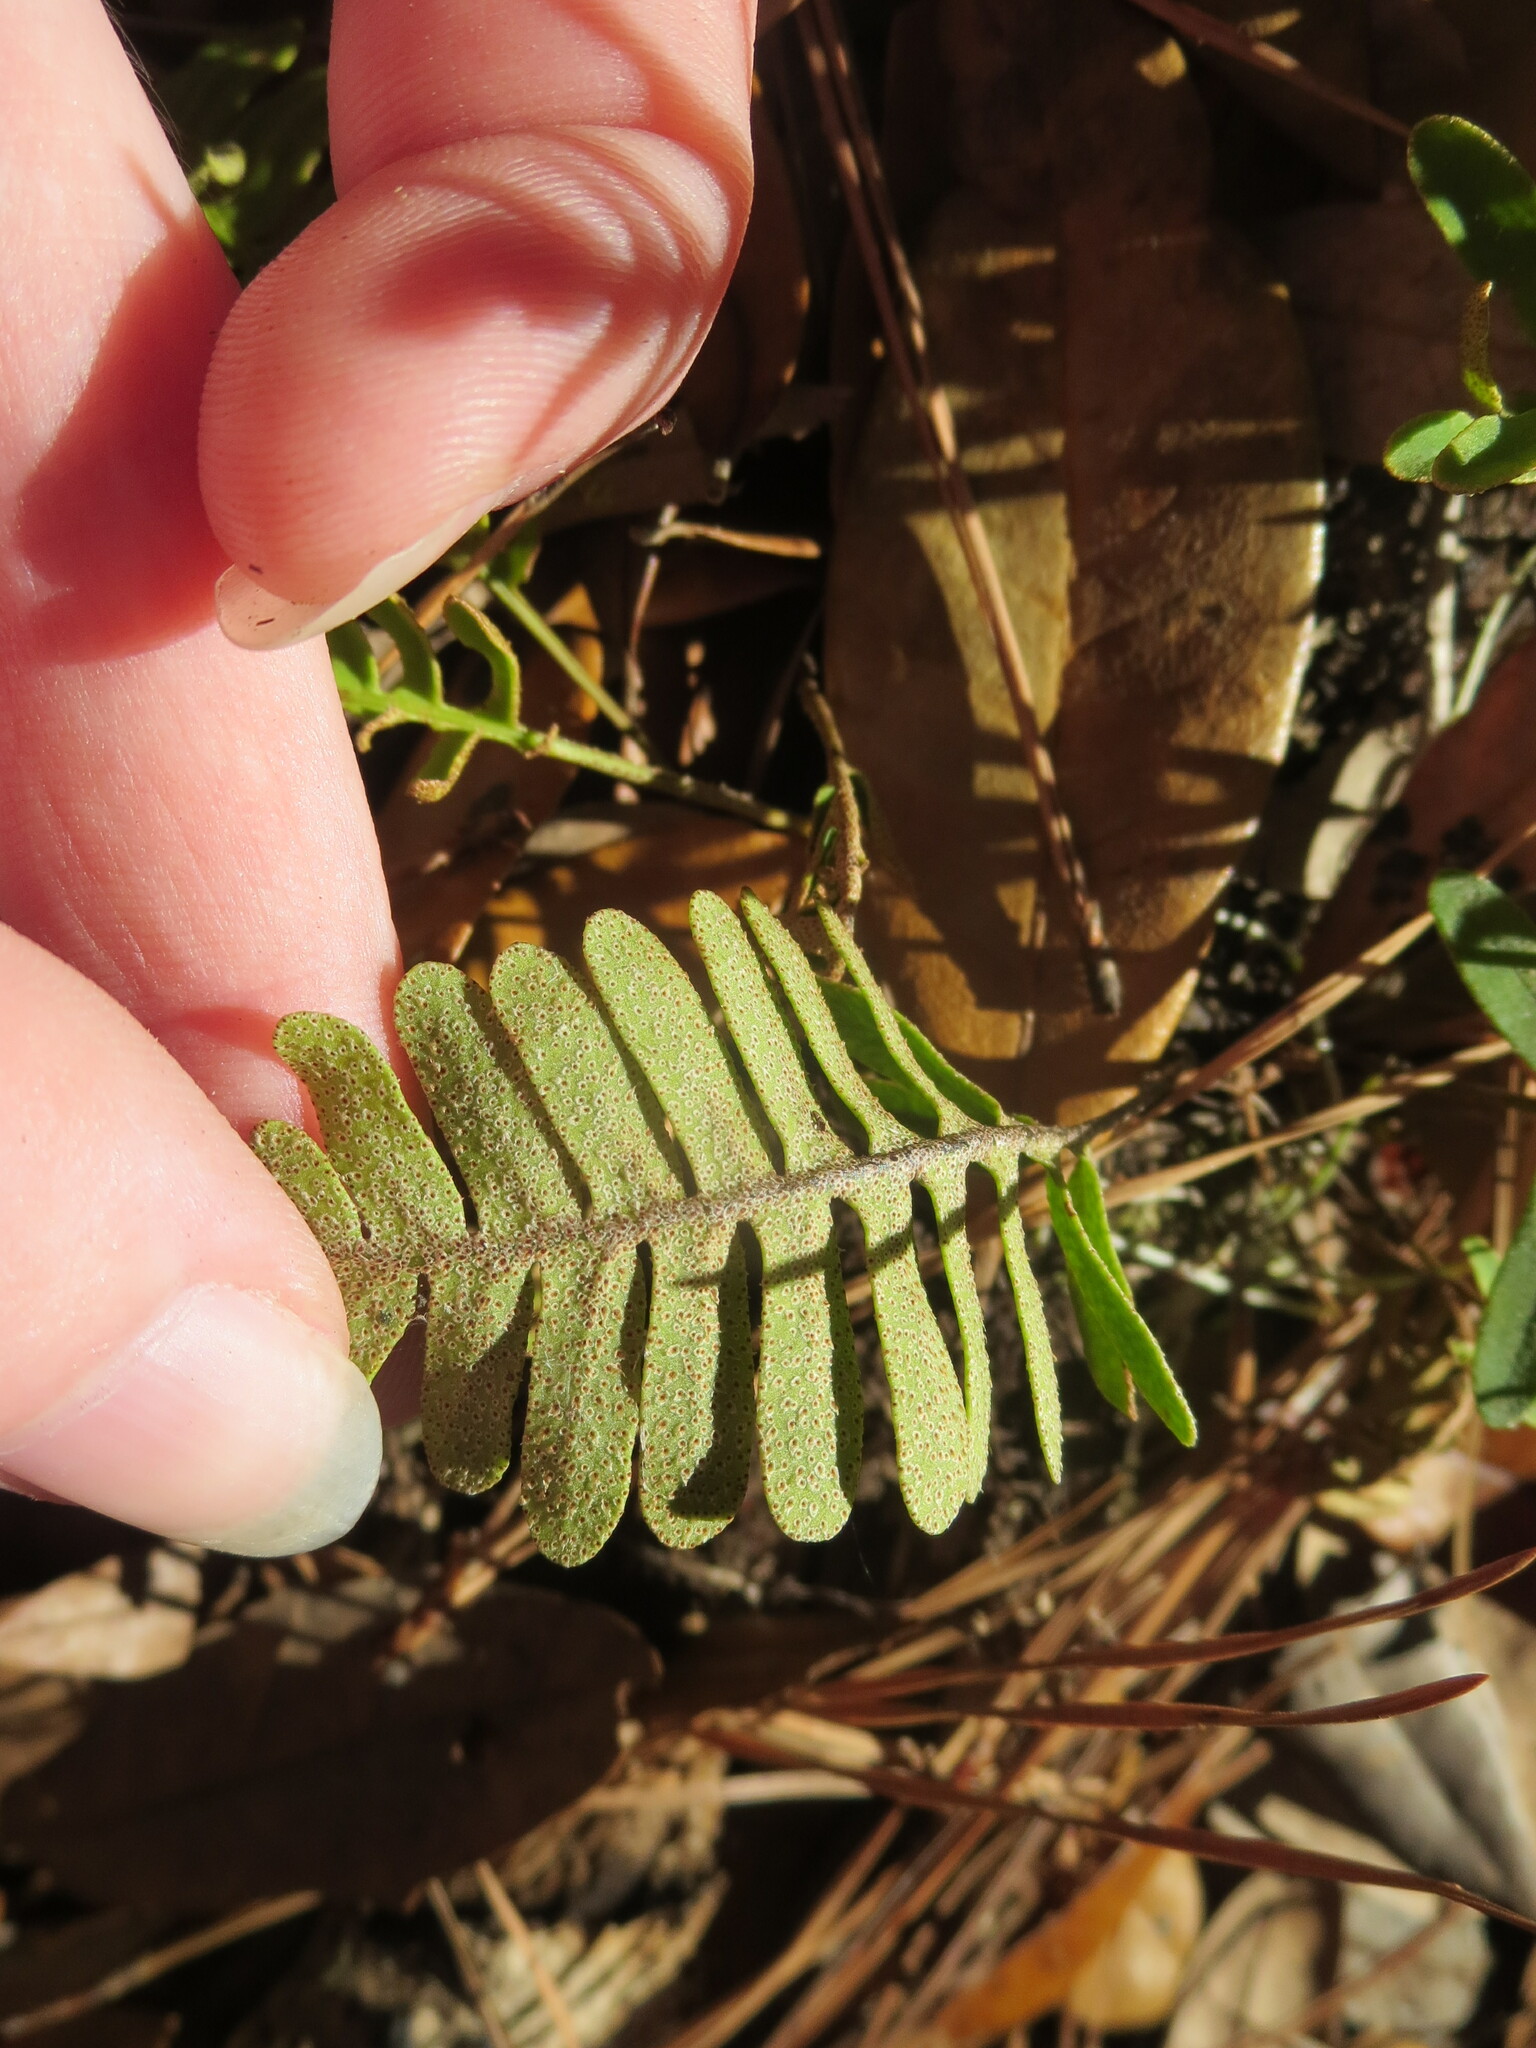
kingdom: Plantae
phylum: Tracheophyta
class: Polypodiopsida
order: Polypodiales
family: Polypodiaceae
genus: Pleopeltis
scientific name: Pleopeltis michauxiana
